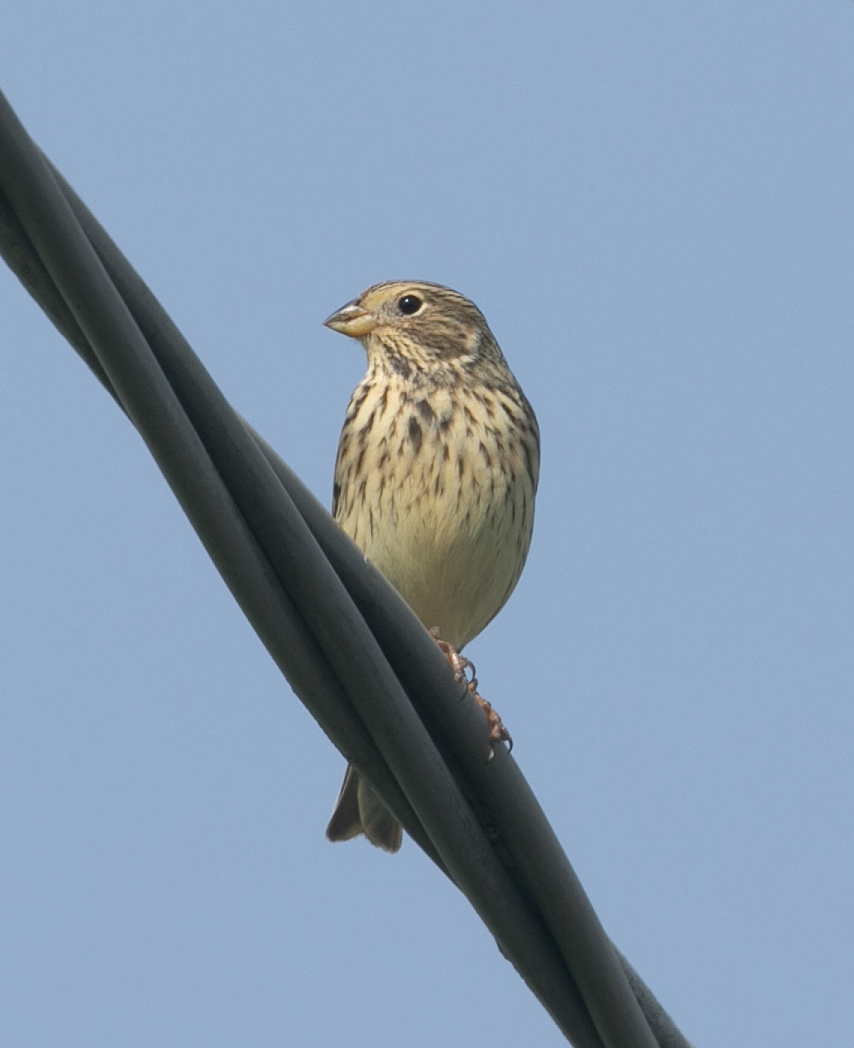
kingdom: Animalia
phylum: Chordata
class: Aves
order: Passeriformes
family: Emberizidae
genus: Emberiza
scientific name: Emberiza calandra
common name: Corn bunting
